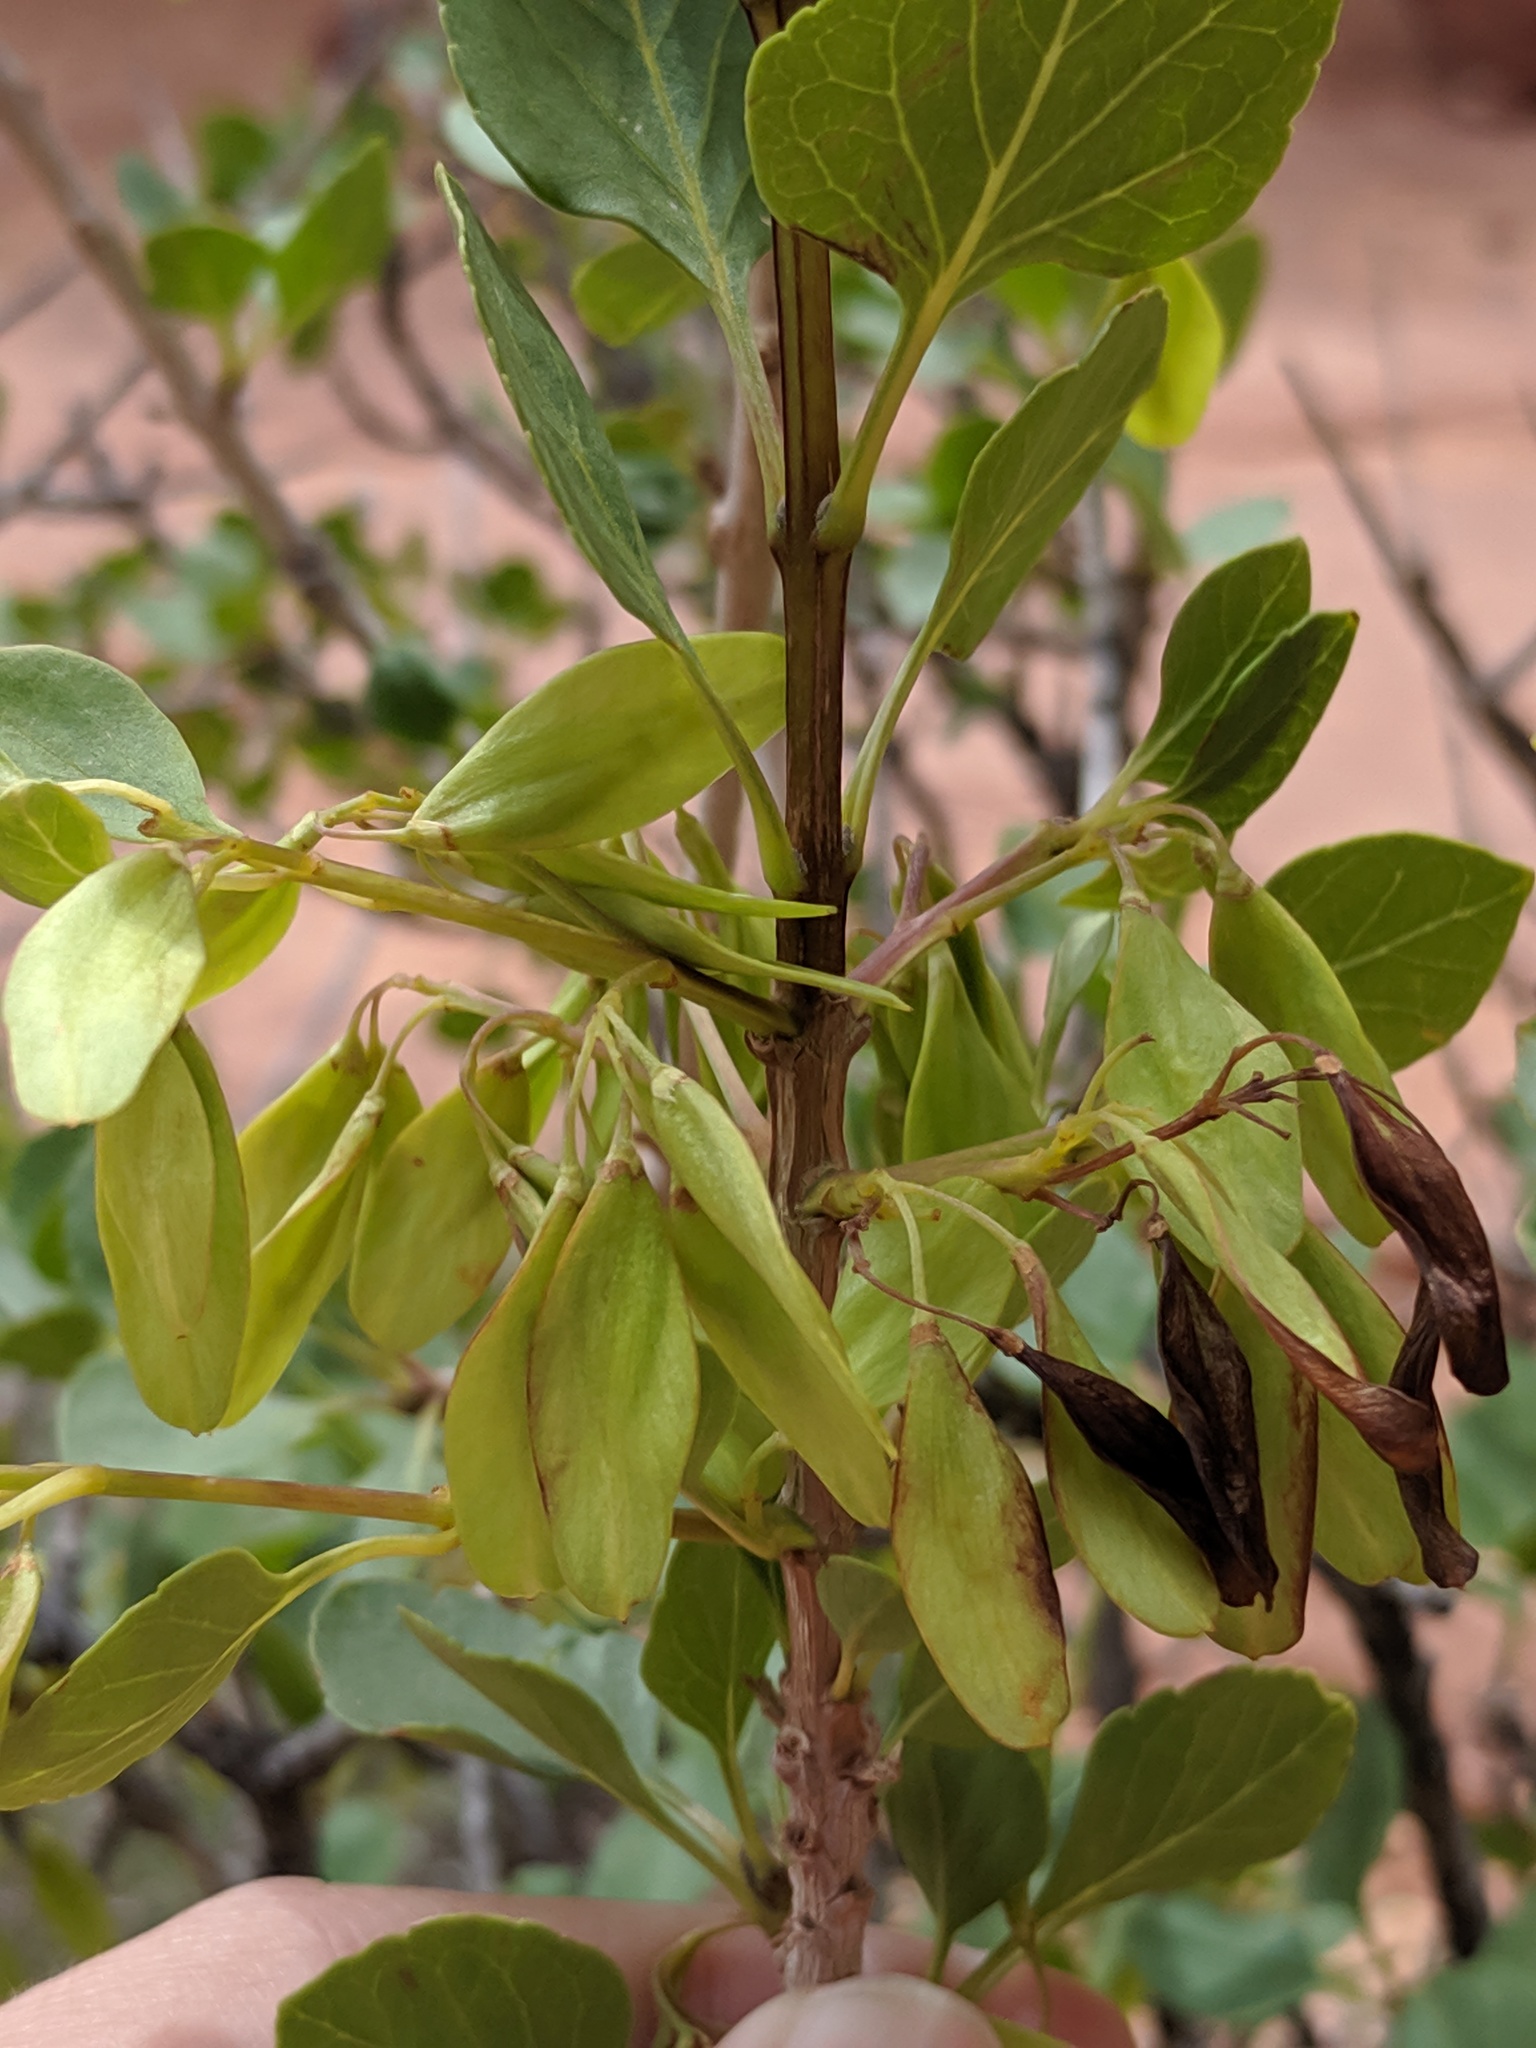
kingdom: Plantae
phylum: Tracheophyta
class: Magnoliopsida
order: Lamiales
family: Oleaceae
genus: Fraxinus
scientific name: Fraxinus anomala
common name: Utah ash
